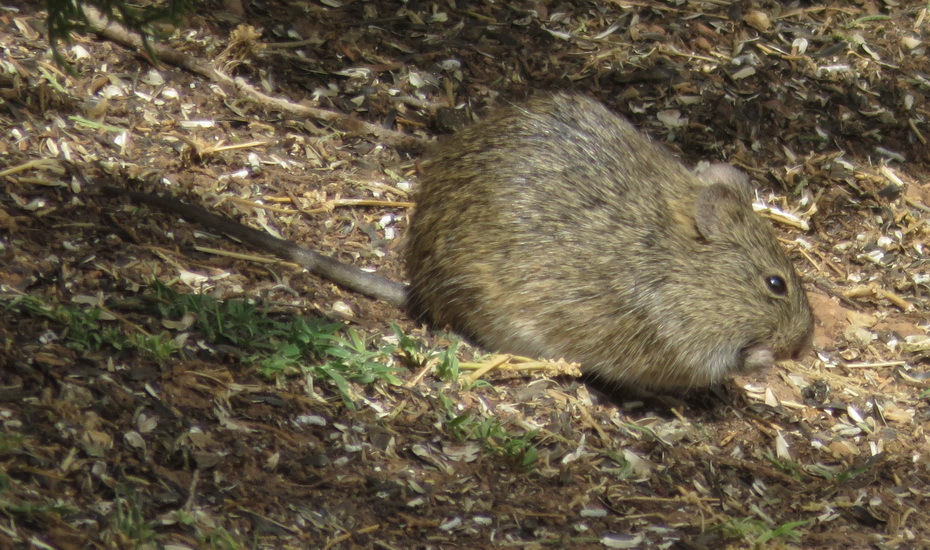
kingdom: Animalia
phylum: Chordata
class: Mammalia
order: Rodentia
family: Cricetidae
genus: Sigmodon
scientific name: Sigmodon hispidus
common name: Hispid cotton rat
